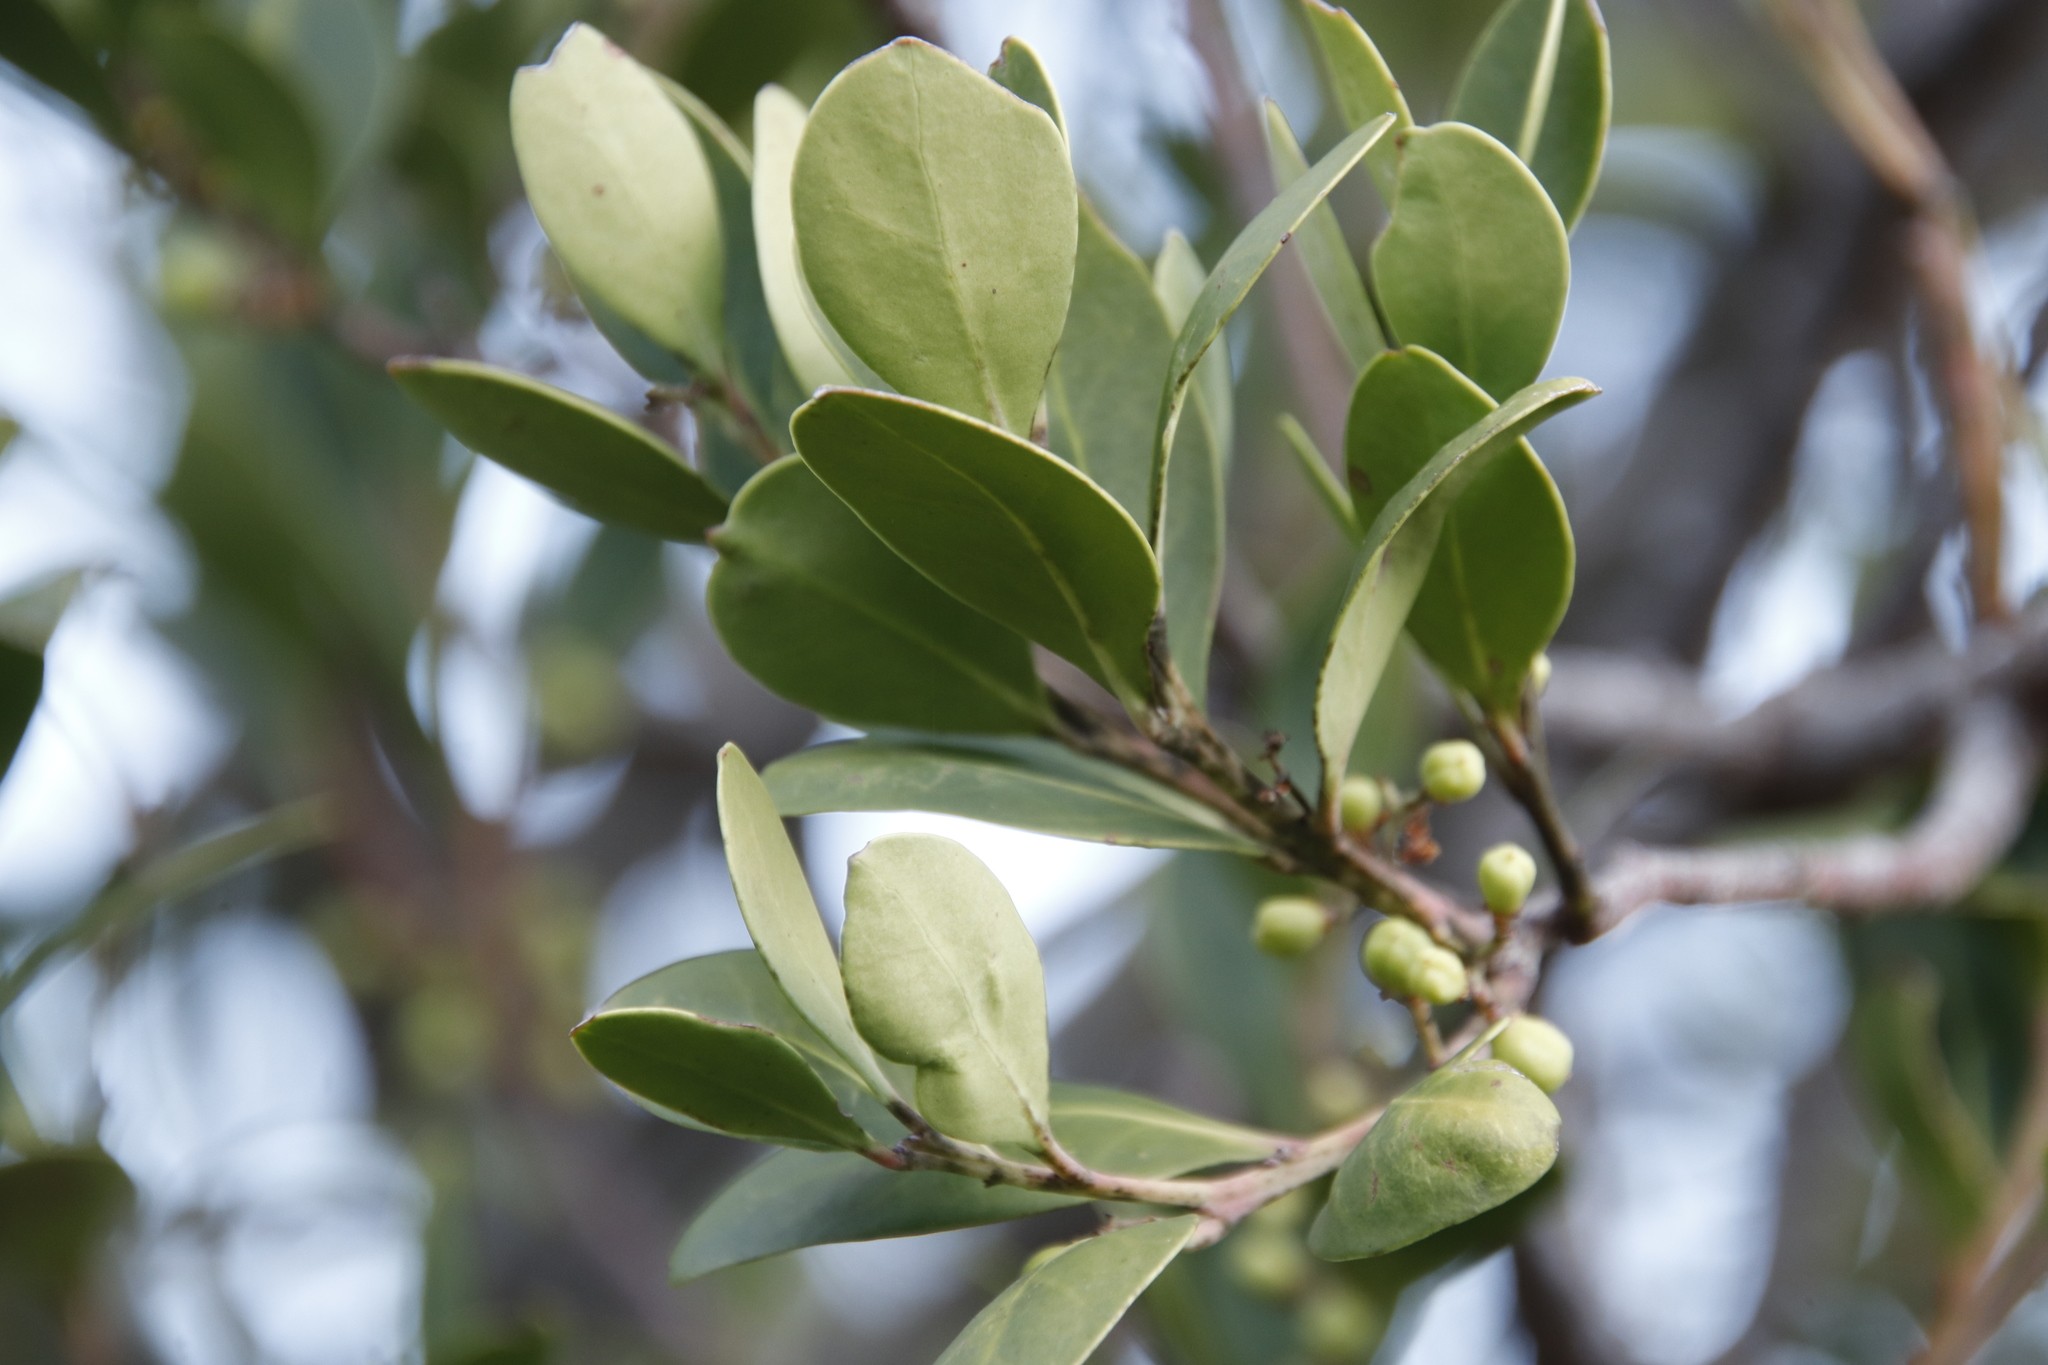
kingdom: Plantae
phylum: Tracheophyta
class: Magnoliopsida
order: Celastrales
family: Celastraceae
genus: Gymnosporia
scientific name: Gymnosporia laurina
